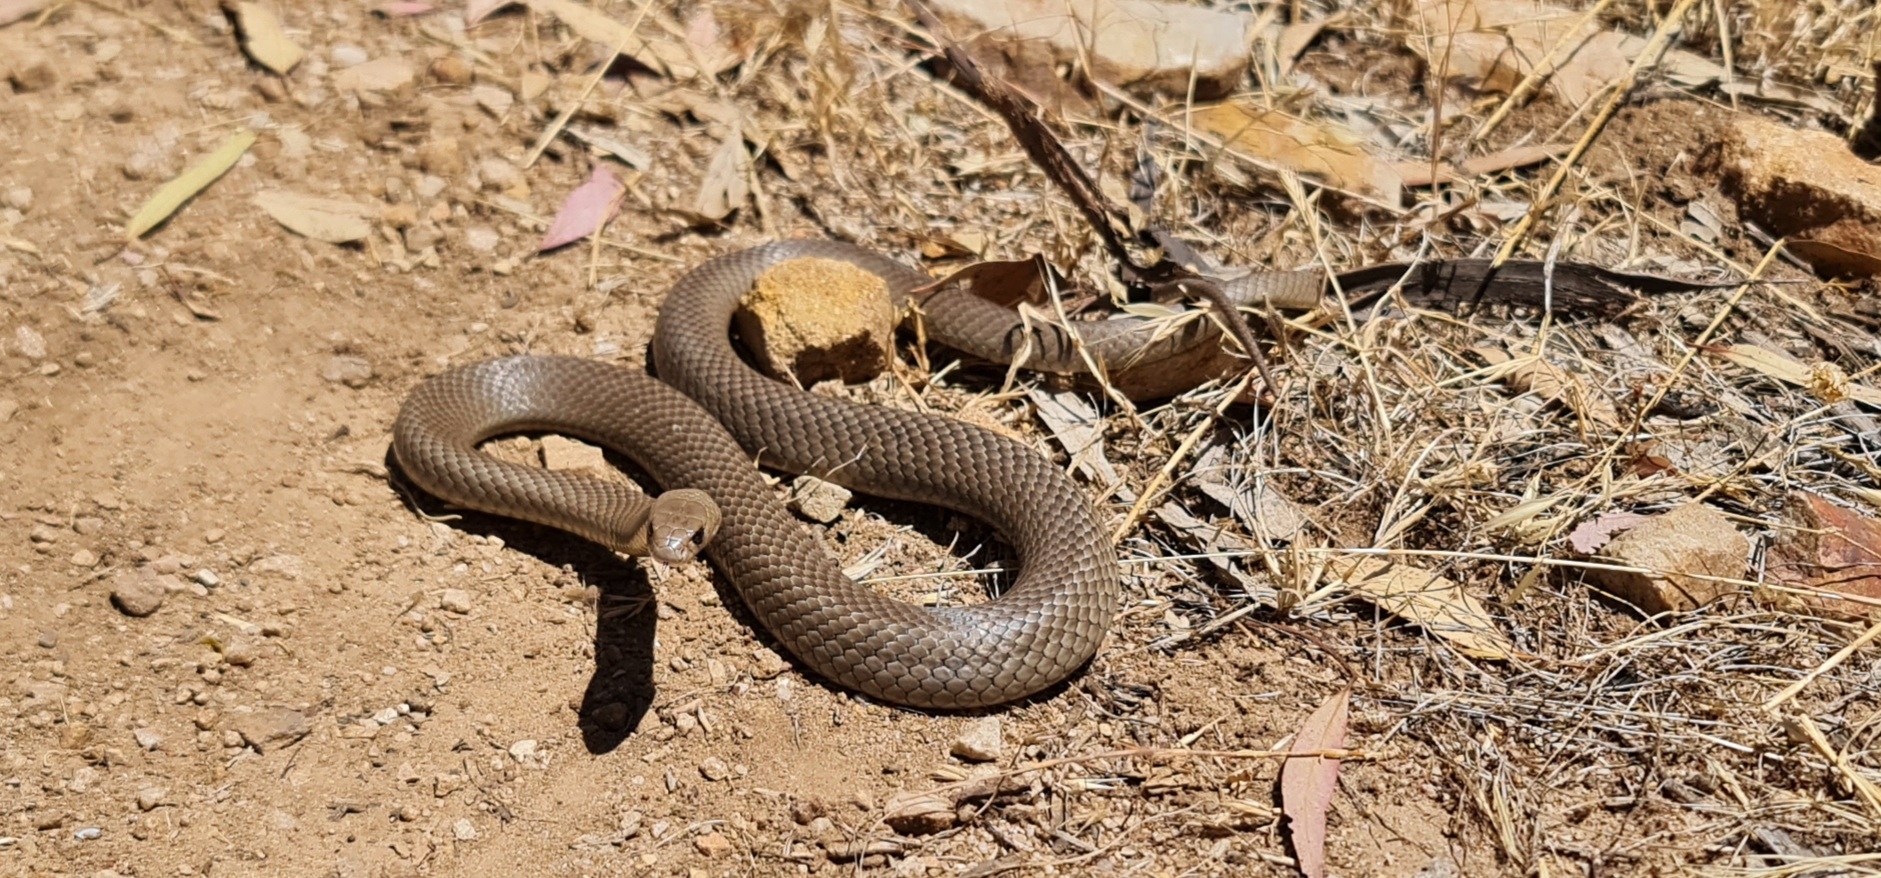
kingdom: Animalia
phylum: Chordata
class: Squamata
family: Elapidae
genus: Pseudonaja
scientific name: Pseudonaja textilis
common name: Eastern brown snake
